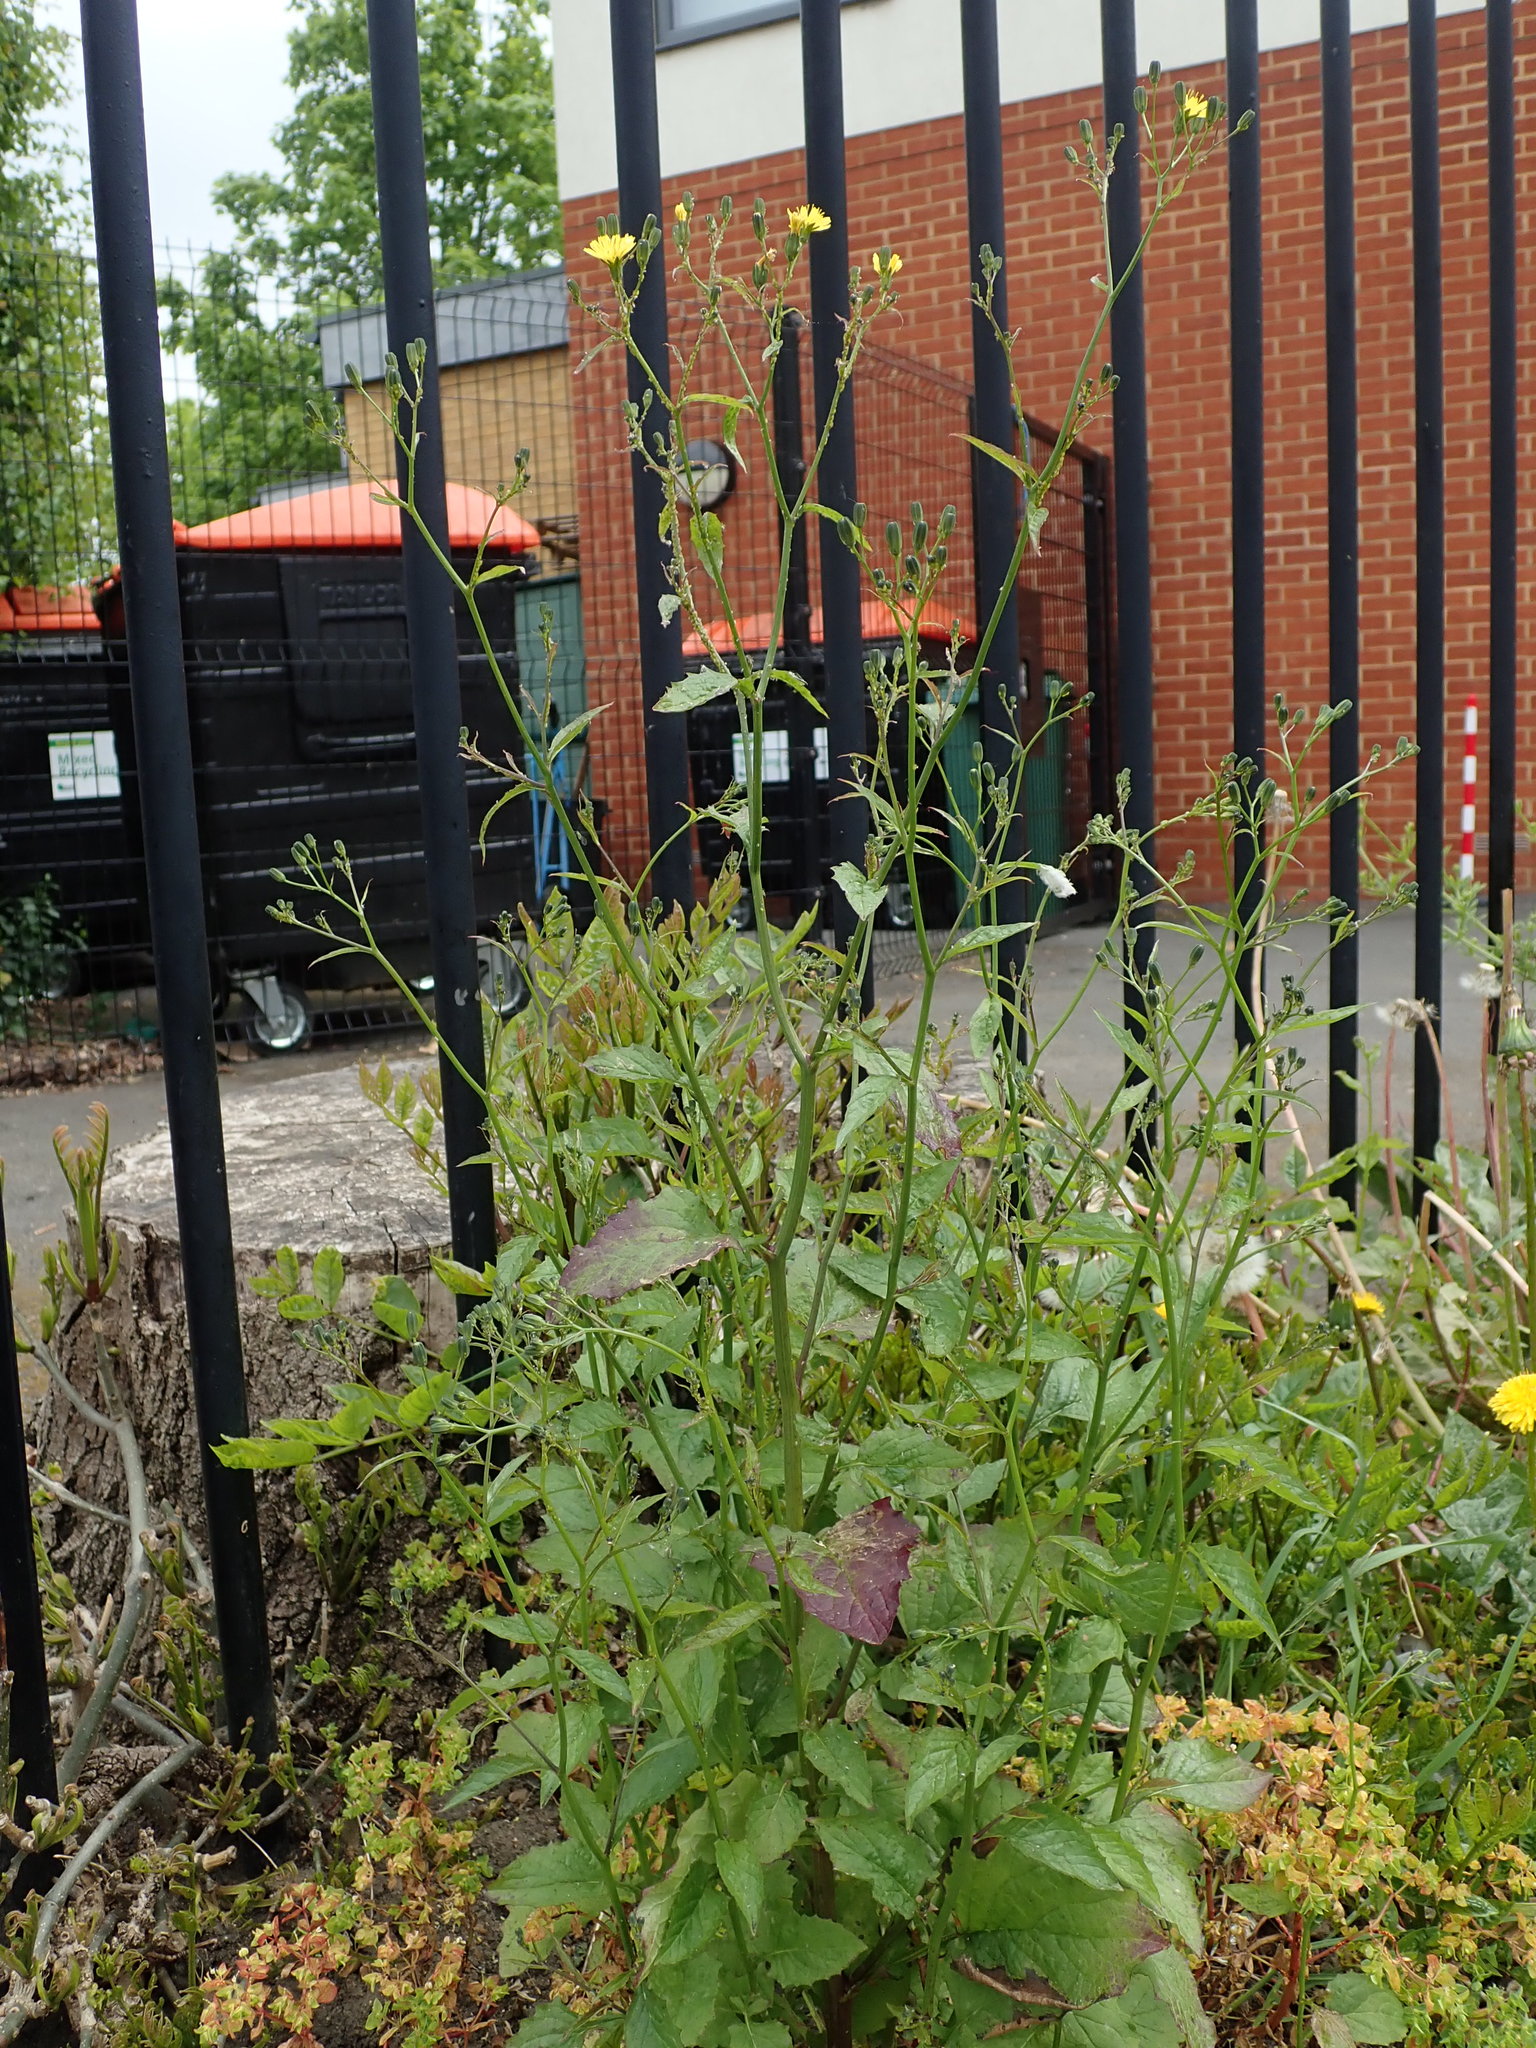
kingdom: Plantae
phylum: Tracheophyta
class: Magnoliopsida
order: Asterales
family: Asteraceae
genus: Lapsana
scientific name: Lapsana communis
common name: Nipplewort
